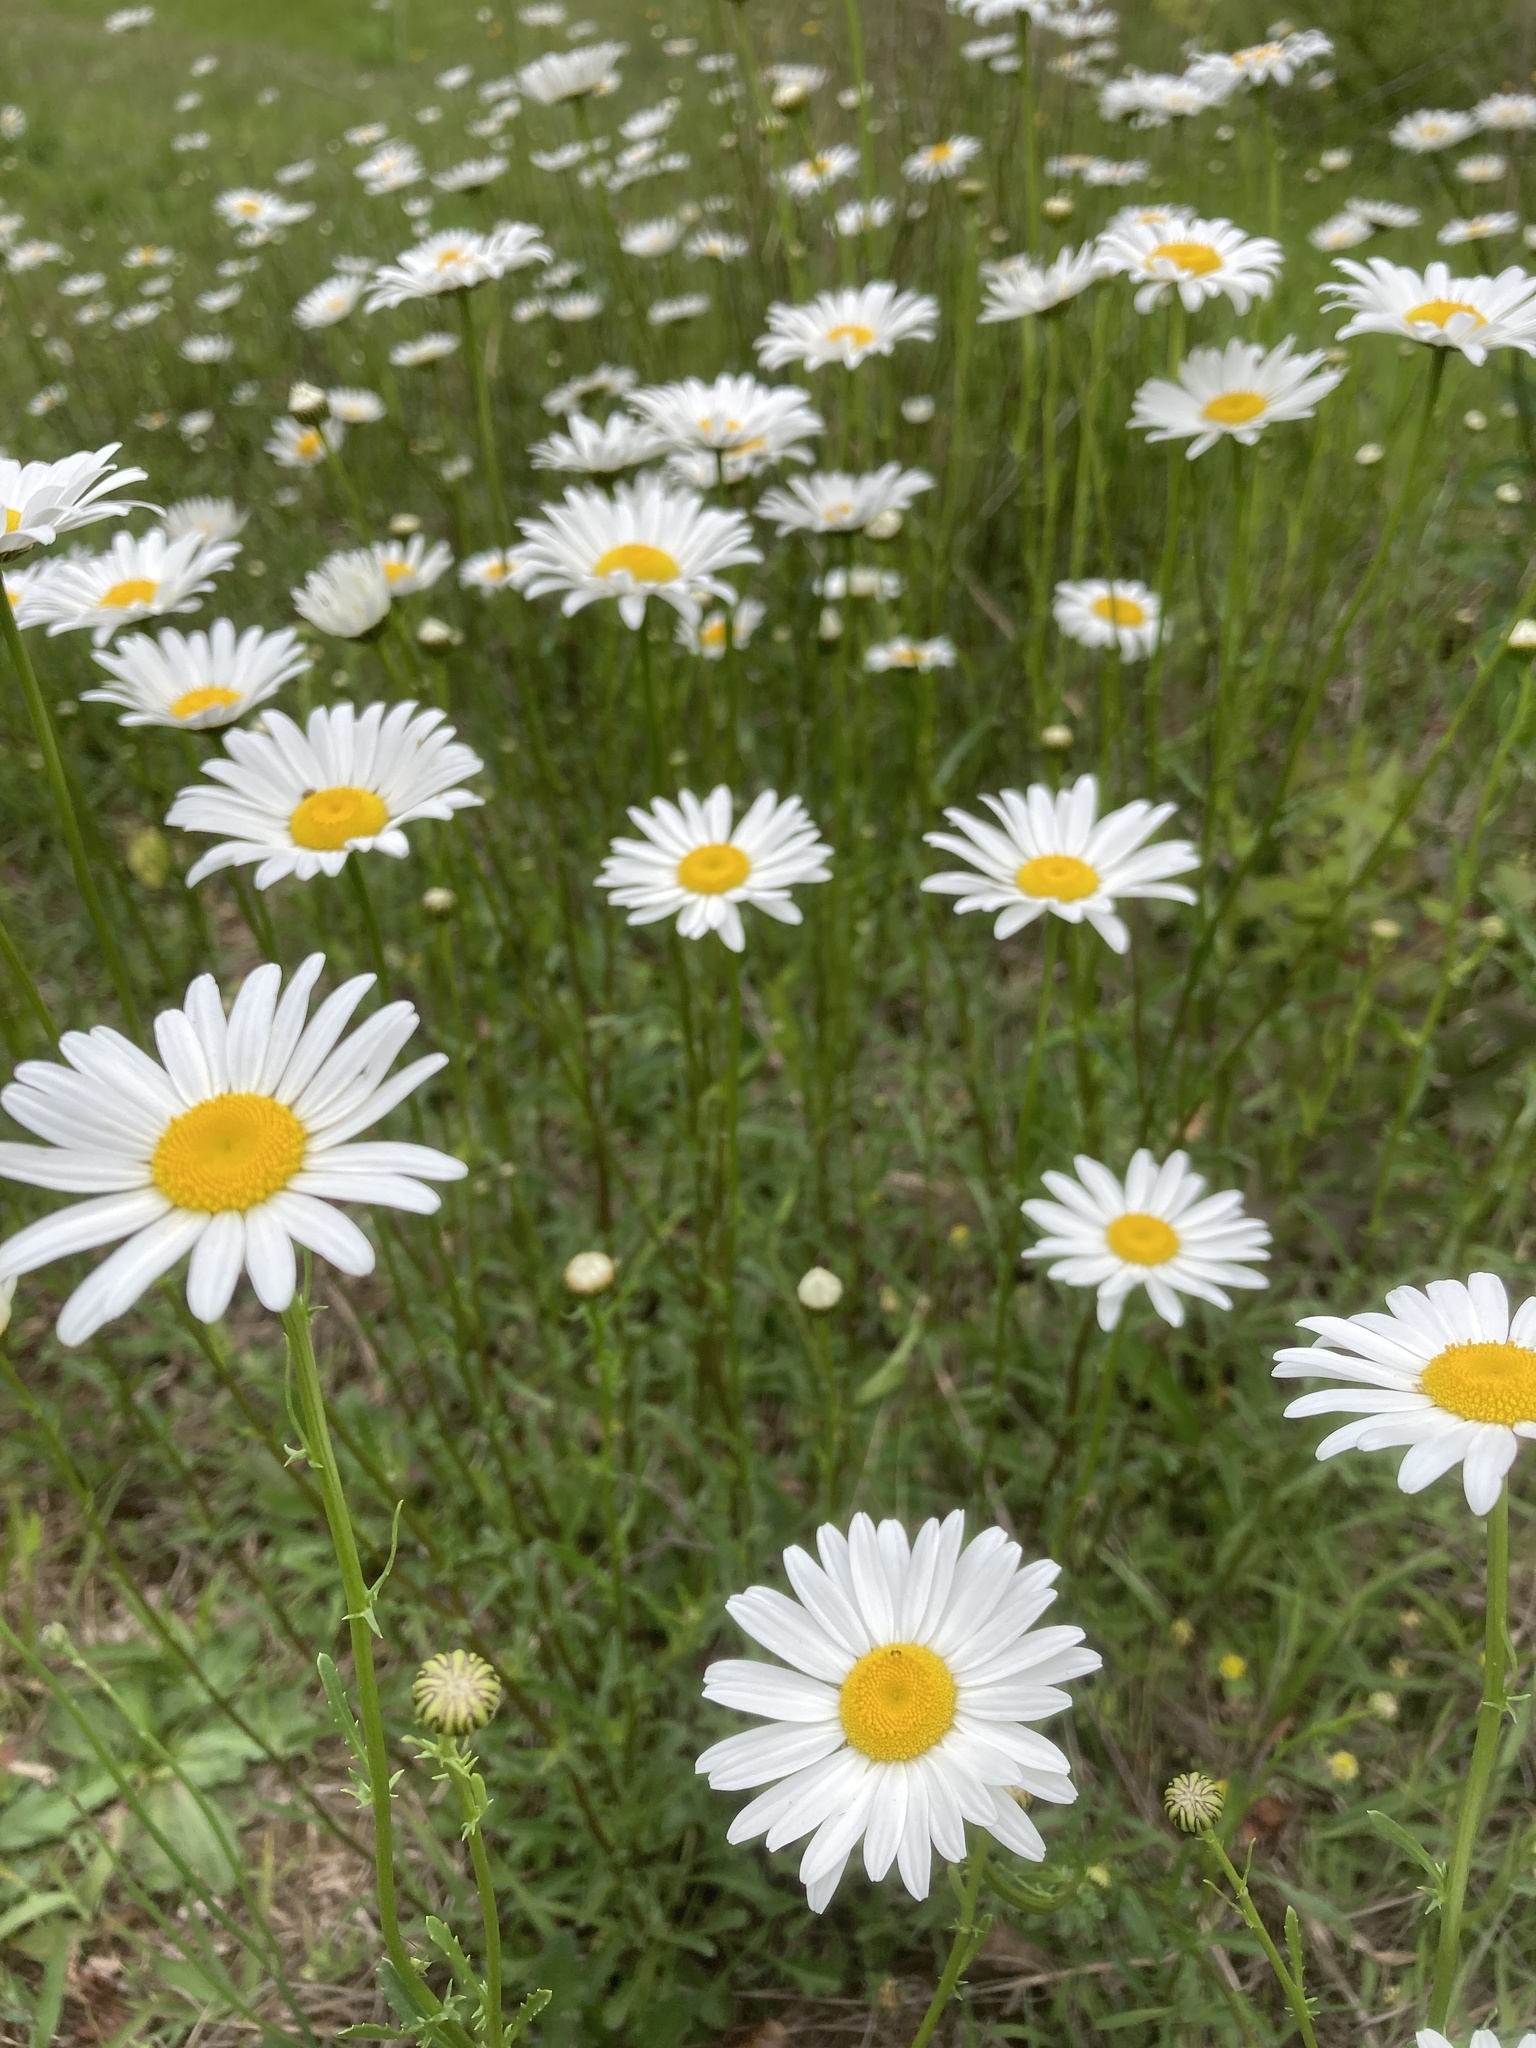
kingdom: Plantae
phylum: Tracheophyta
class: Magnoliopsida
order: Asterales
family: Asteraceae
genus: Leucanthemum
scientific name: Leucanthemum vulgare
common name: Oxeye daisy
